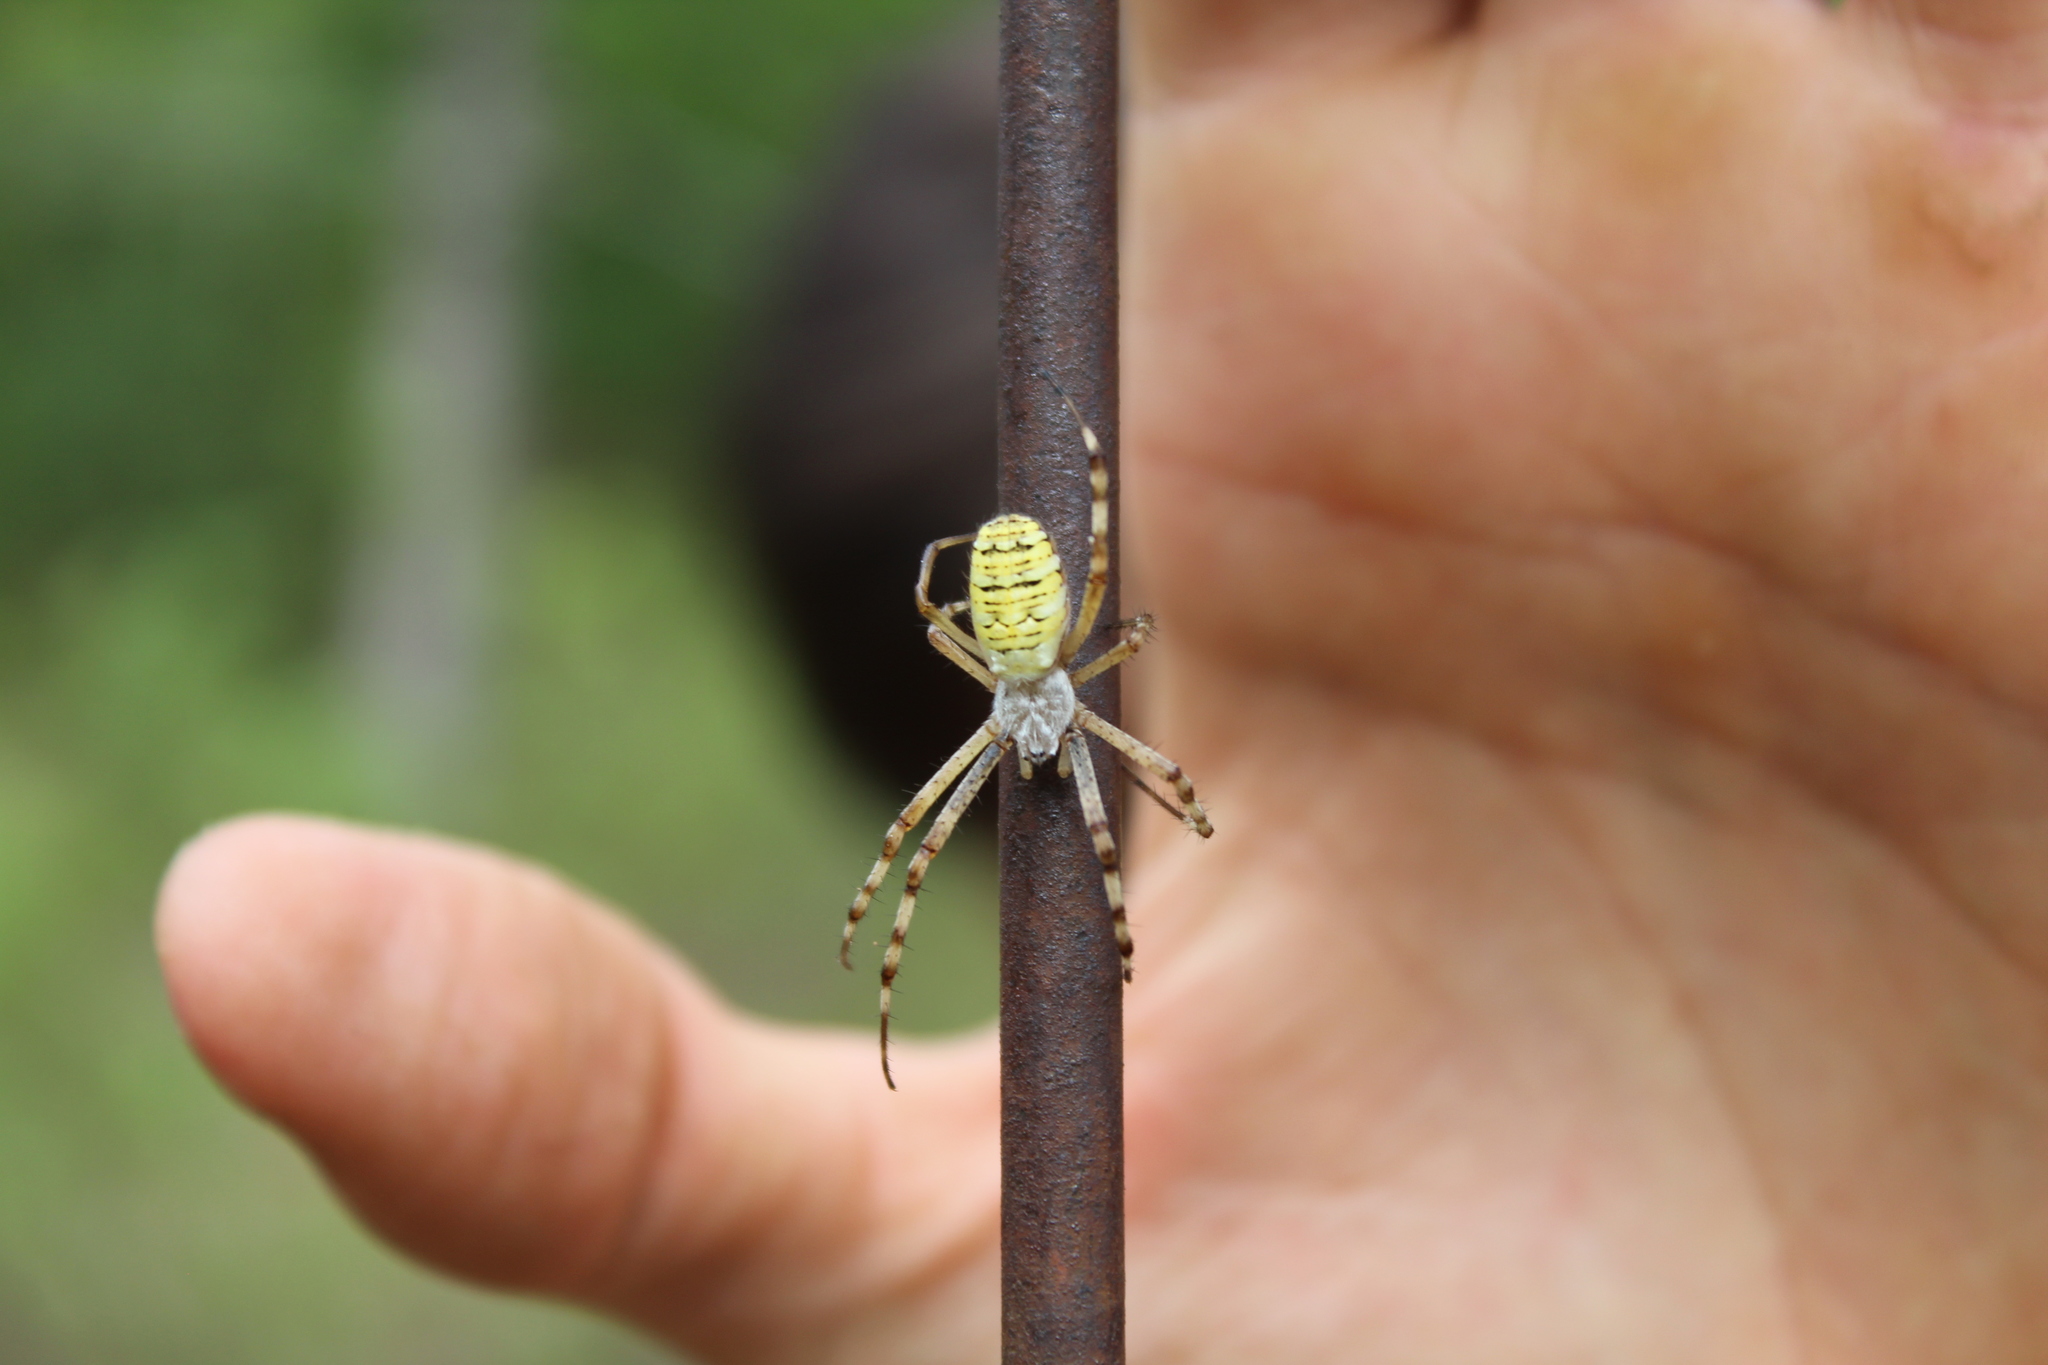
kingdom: Animalia
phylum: Arthropoda
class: Arachnida
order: Araneae
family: Araneidae
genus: Argiope
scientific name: Argiope bruennichi
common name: Wasp spider
